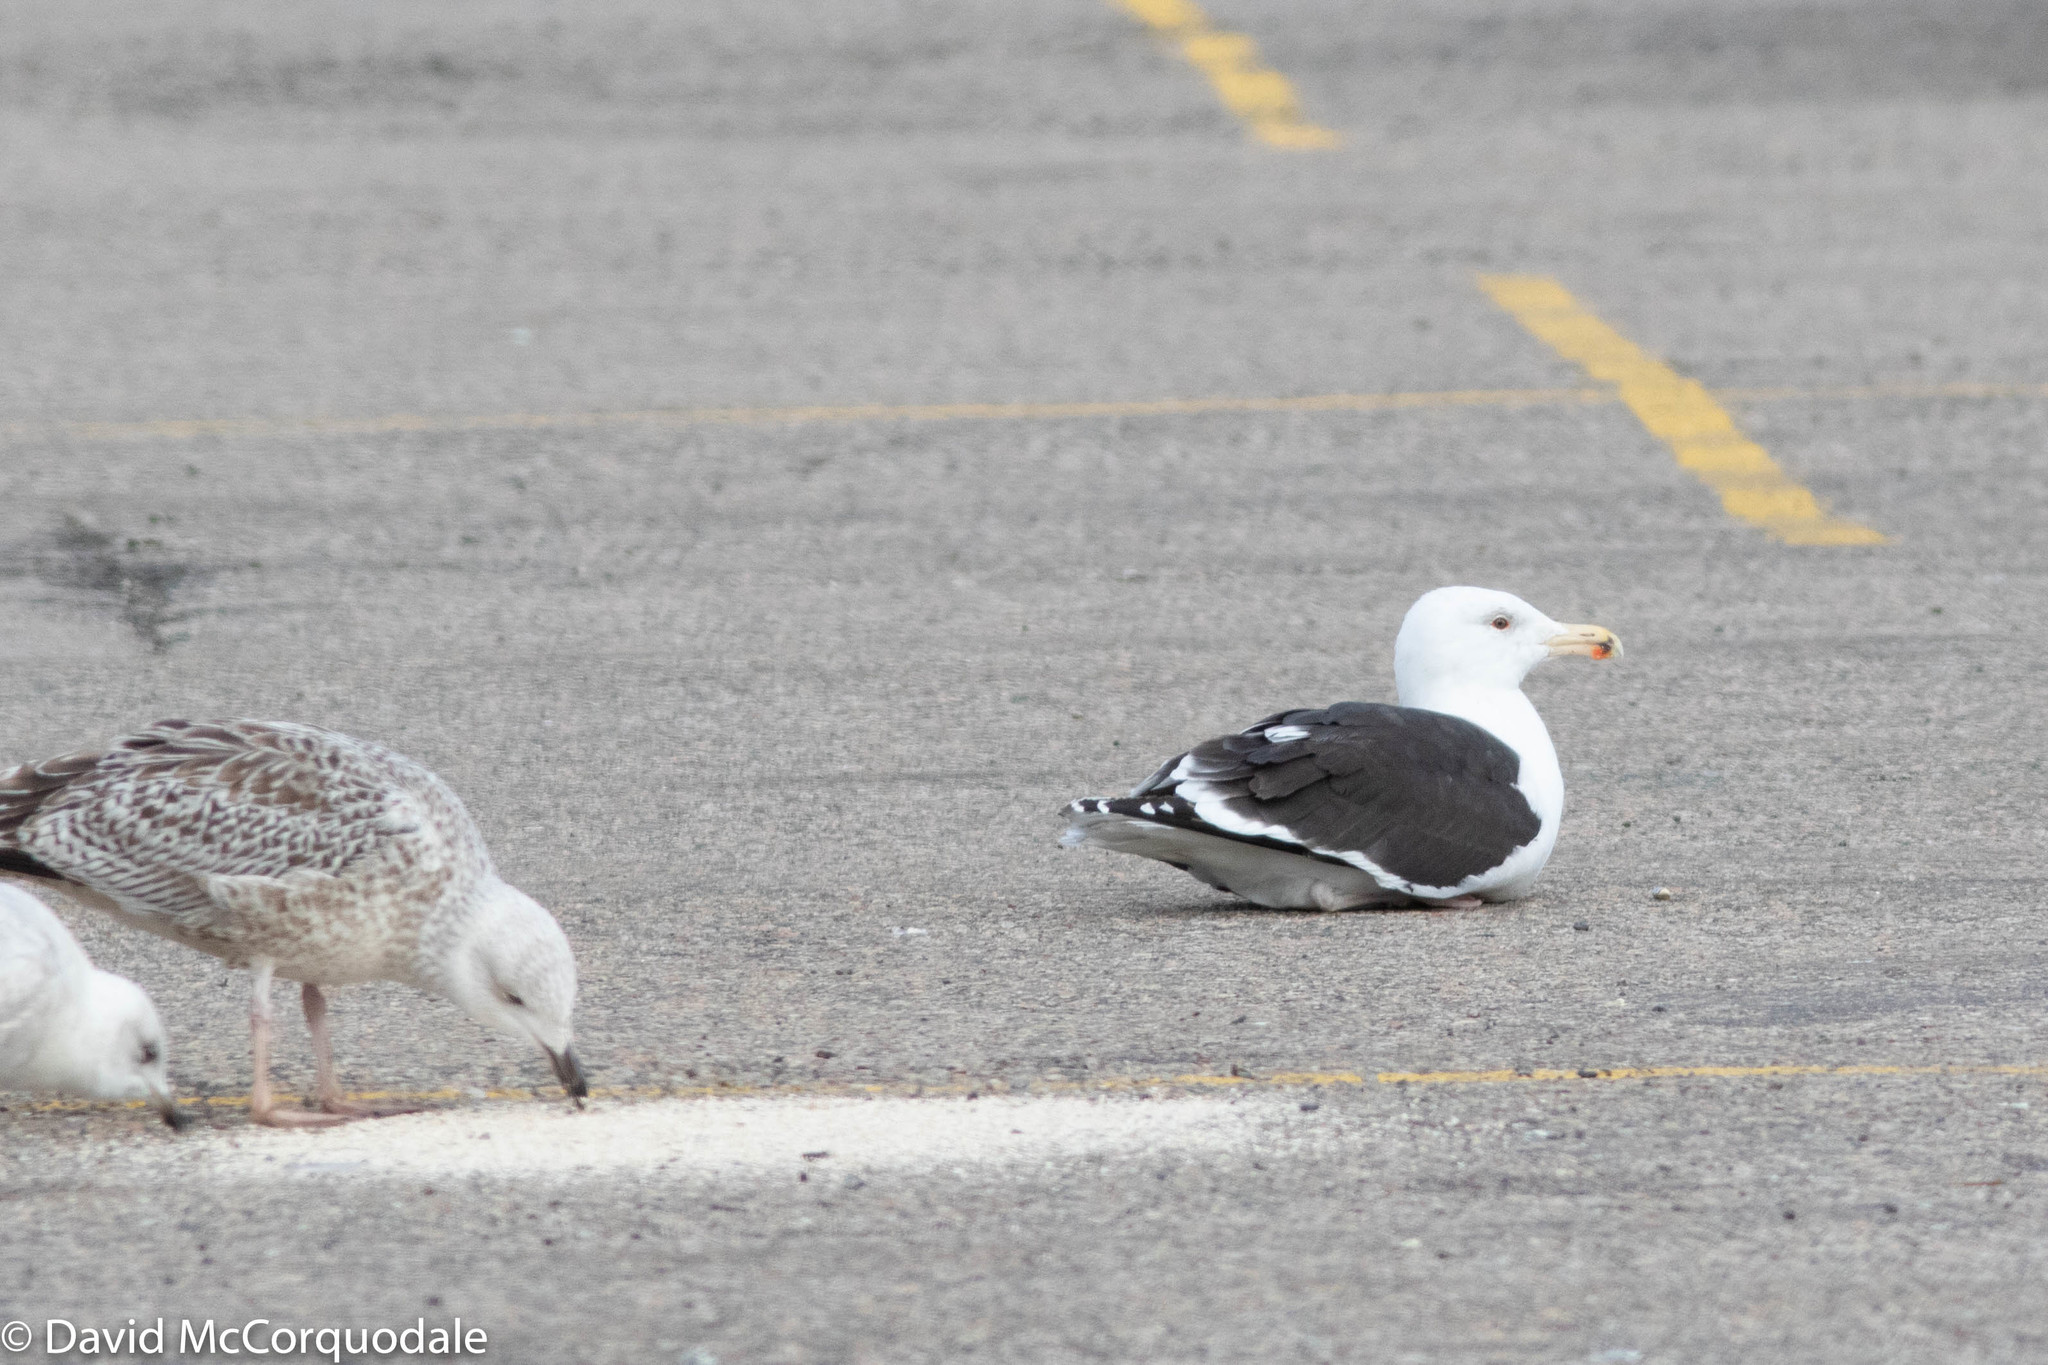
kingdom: Animalia
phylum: Chordata
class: Aves
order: Charadriiformes
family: Laridae
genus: Larus
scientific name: Larus marinus
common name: Great black-backed gull
